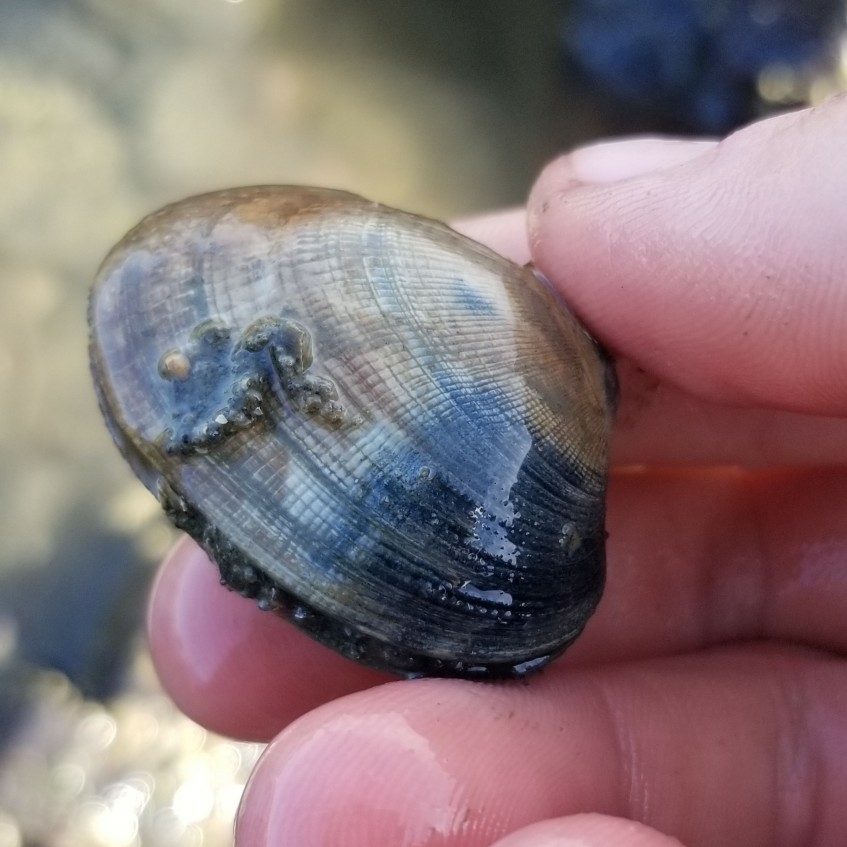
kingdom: Animalia
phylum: Mollusca
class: Bivalvia
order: Venerida
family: Veneridae
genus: Ruditapes
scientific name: Ruditapes philippinarum
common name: Manila clam
